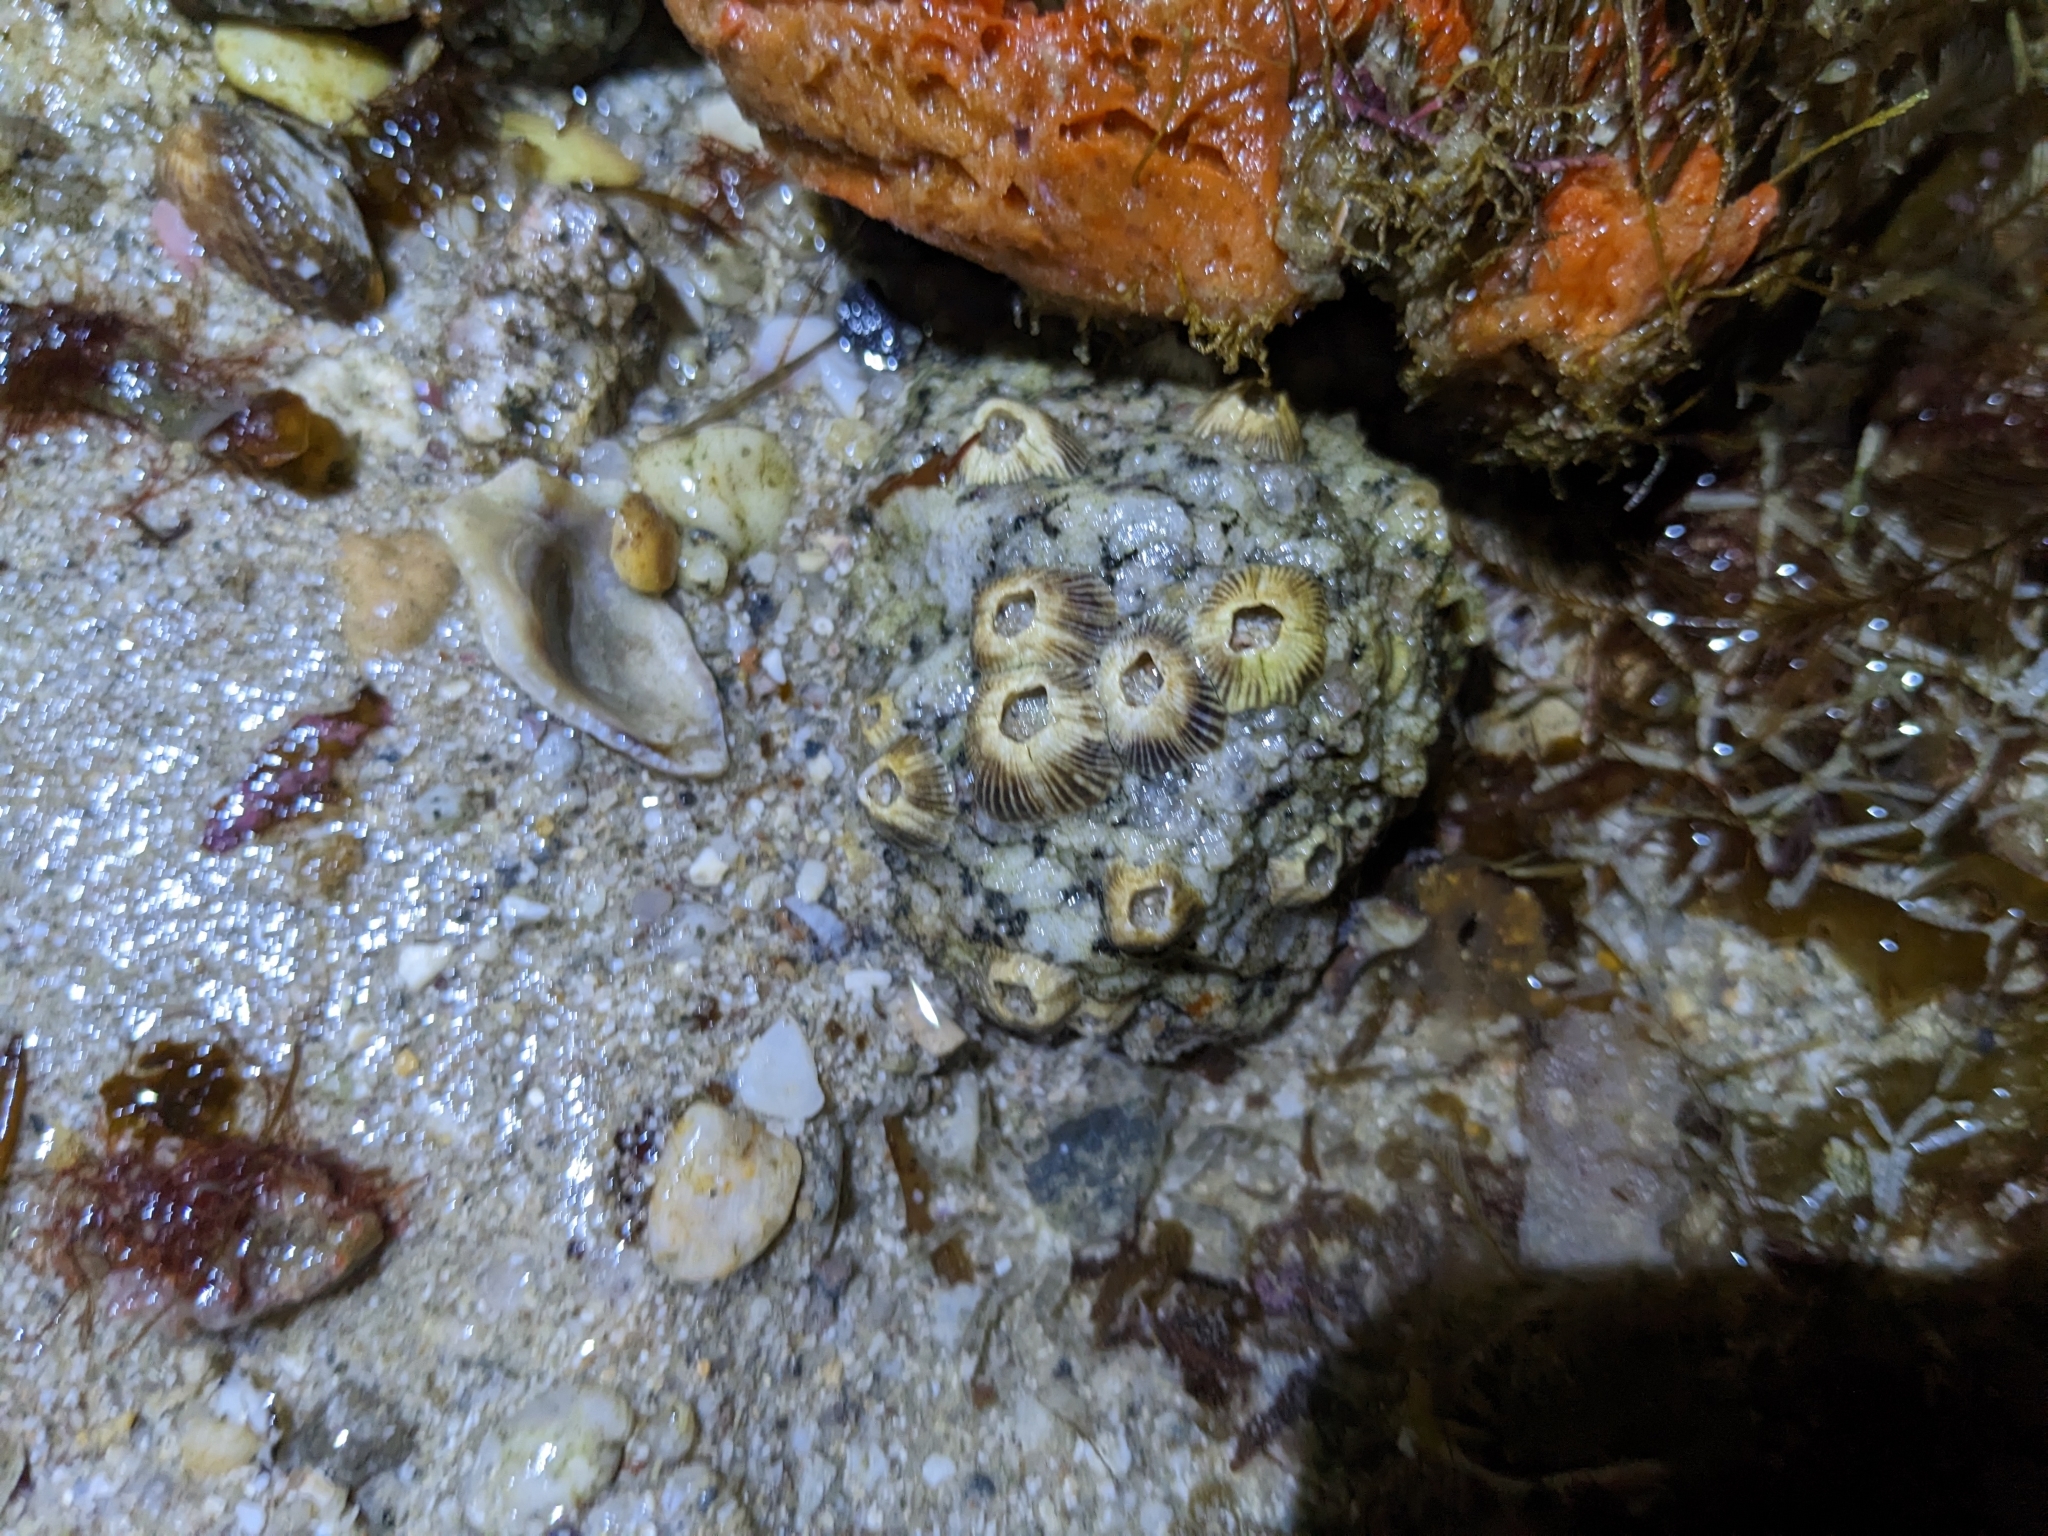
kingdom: Animalia
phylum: Arthropoda
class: Maxillopoda
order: Sessilia
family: Balanidae
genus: Paraconcavus
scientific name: Paraconcavus mexicanus
